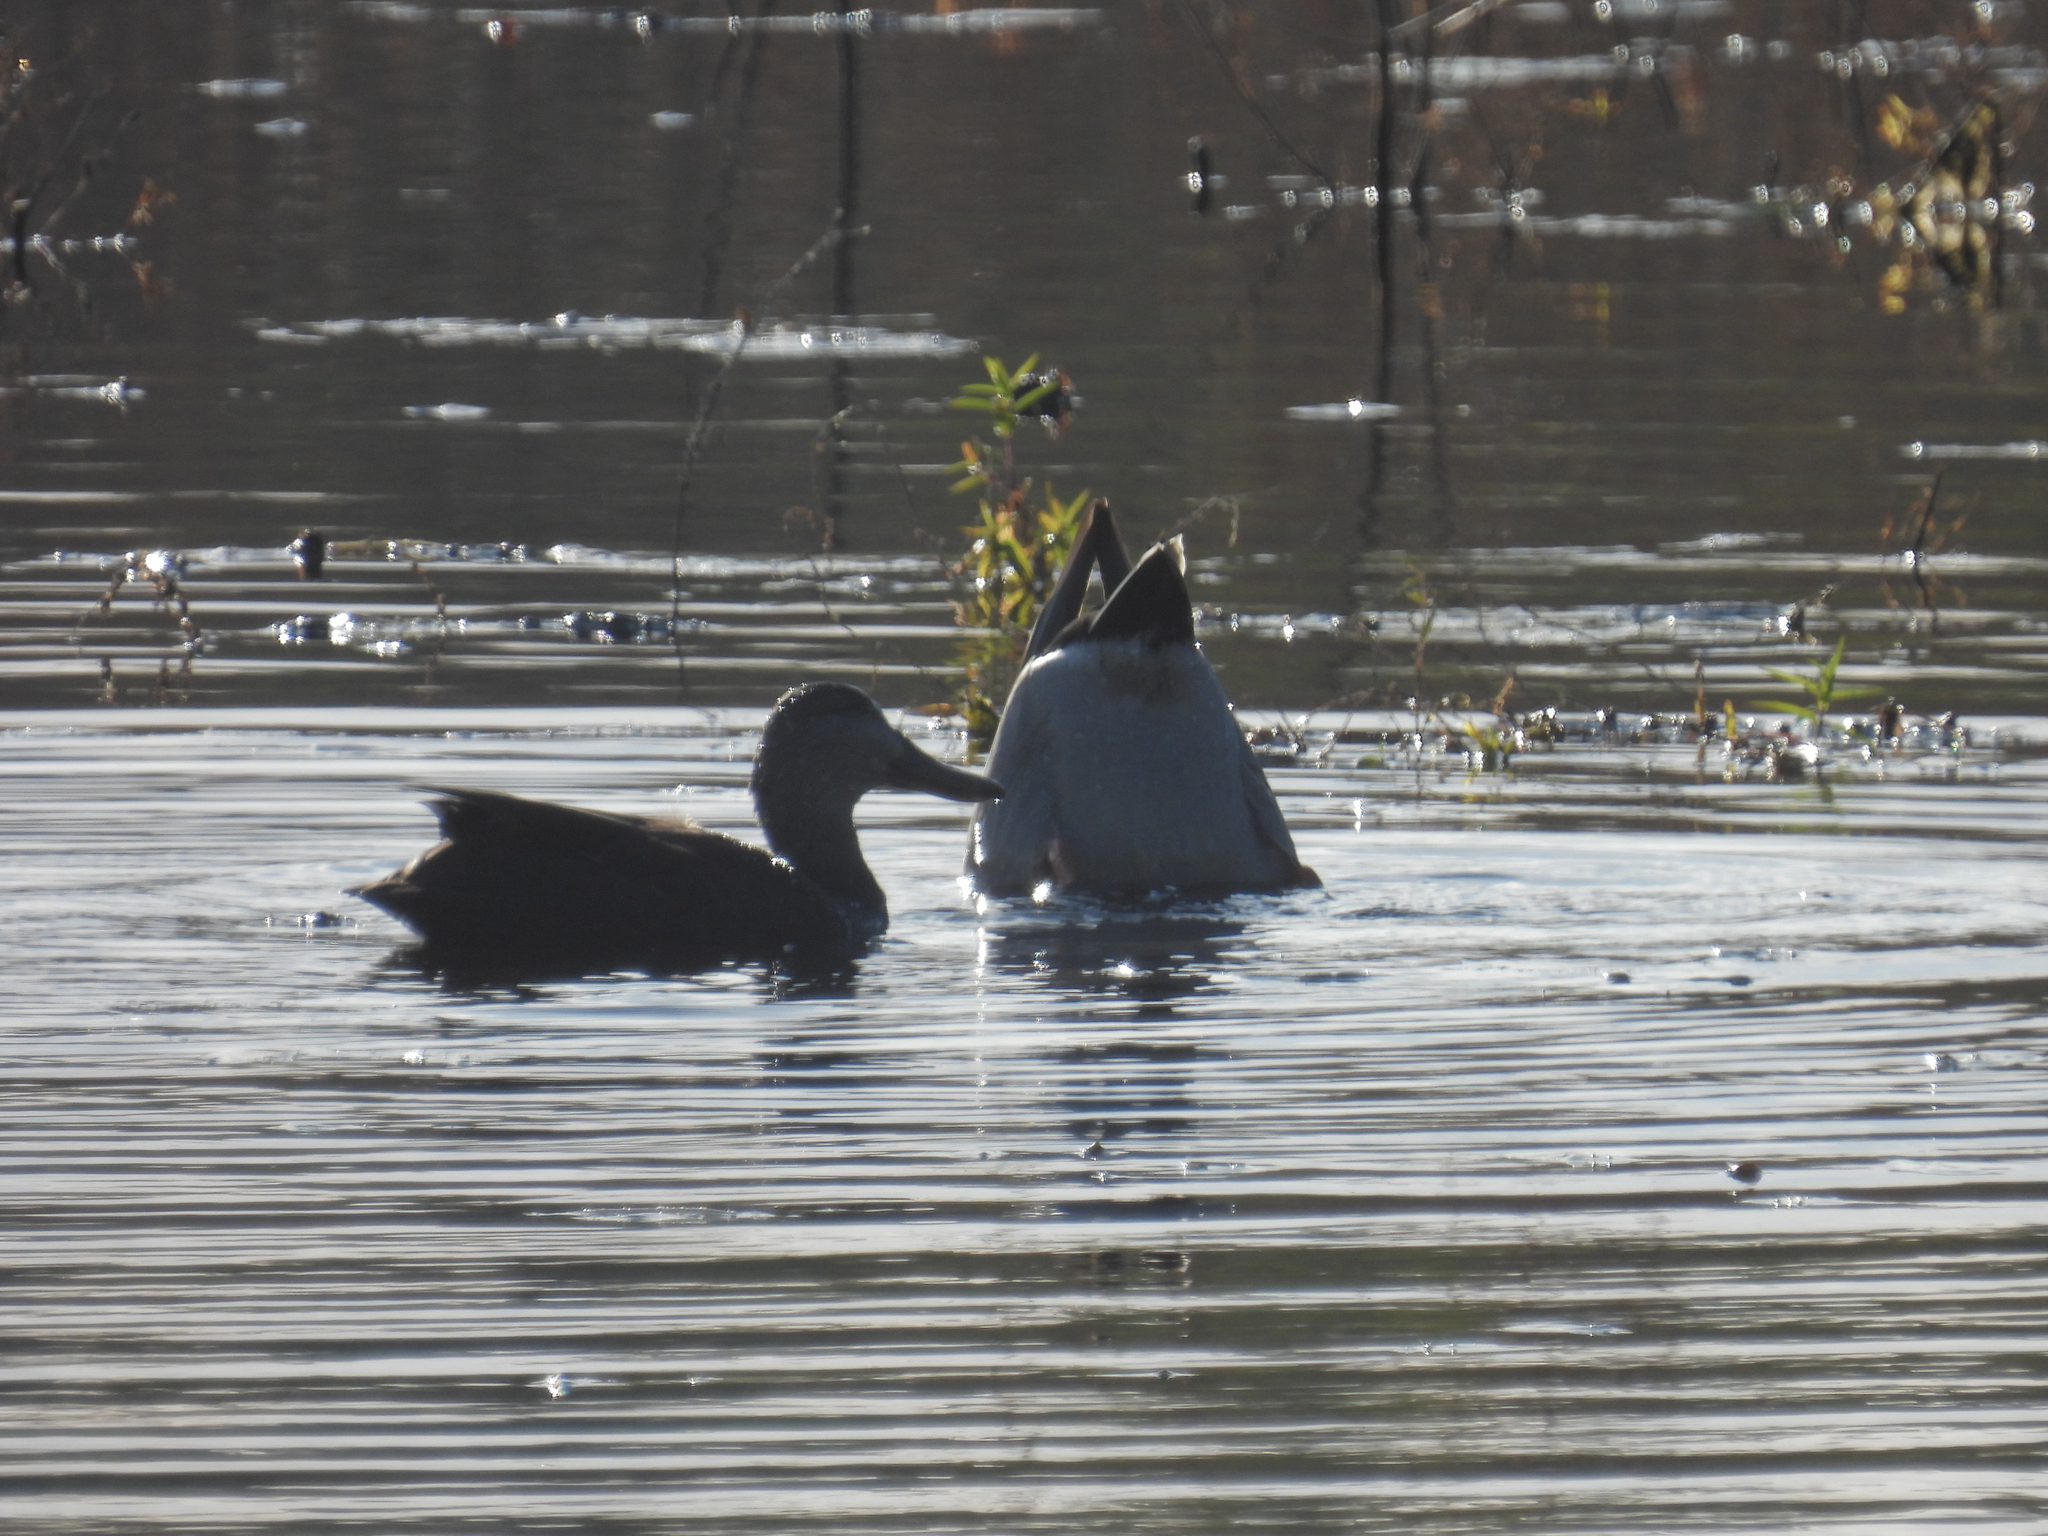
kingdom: Animalia
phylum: Chordata
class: Aves
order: Anseriformes
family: Anatidae
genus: Anas
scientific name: Anas rubripes
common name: American black duck
